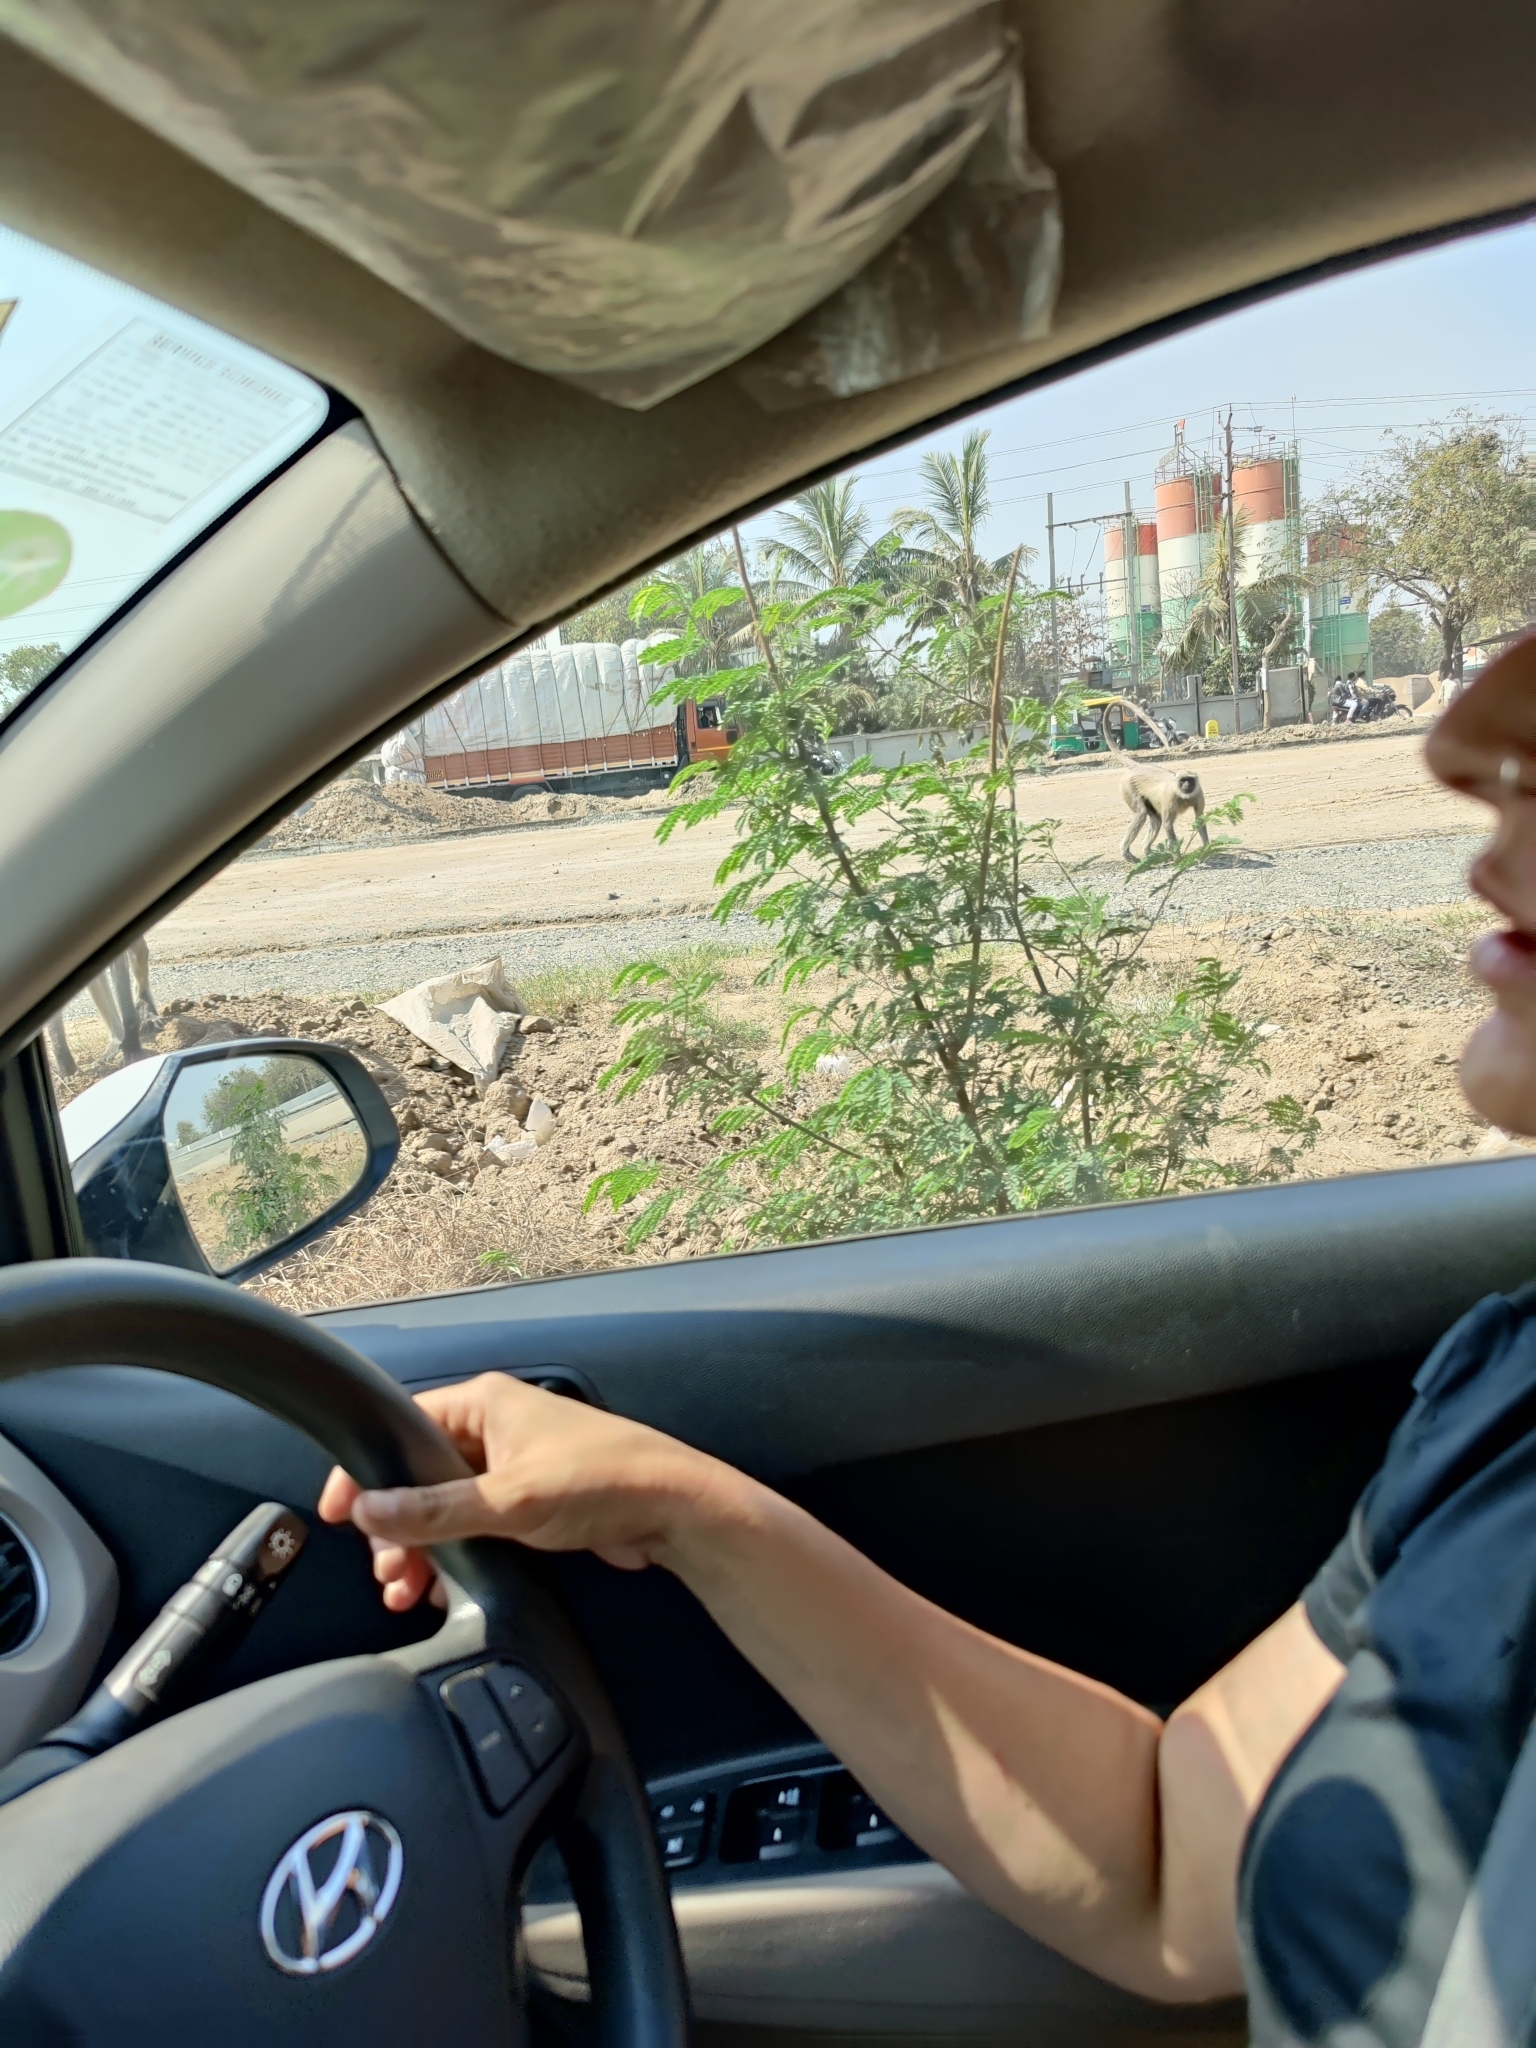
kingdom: Animalia
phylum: Chordata
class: Mammalia
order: Primates
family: Cercopithecidae
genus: Semnopithecus
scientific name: Semnopithecus entellus
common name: Northern plains gray langur
